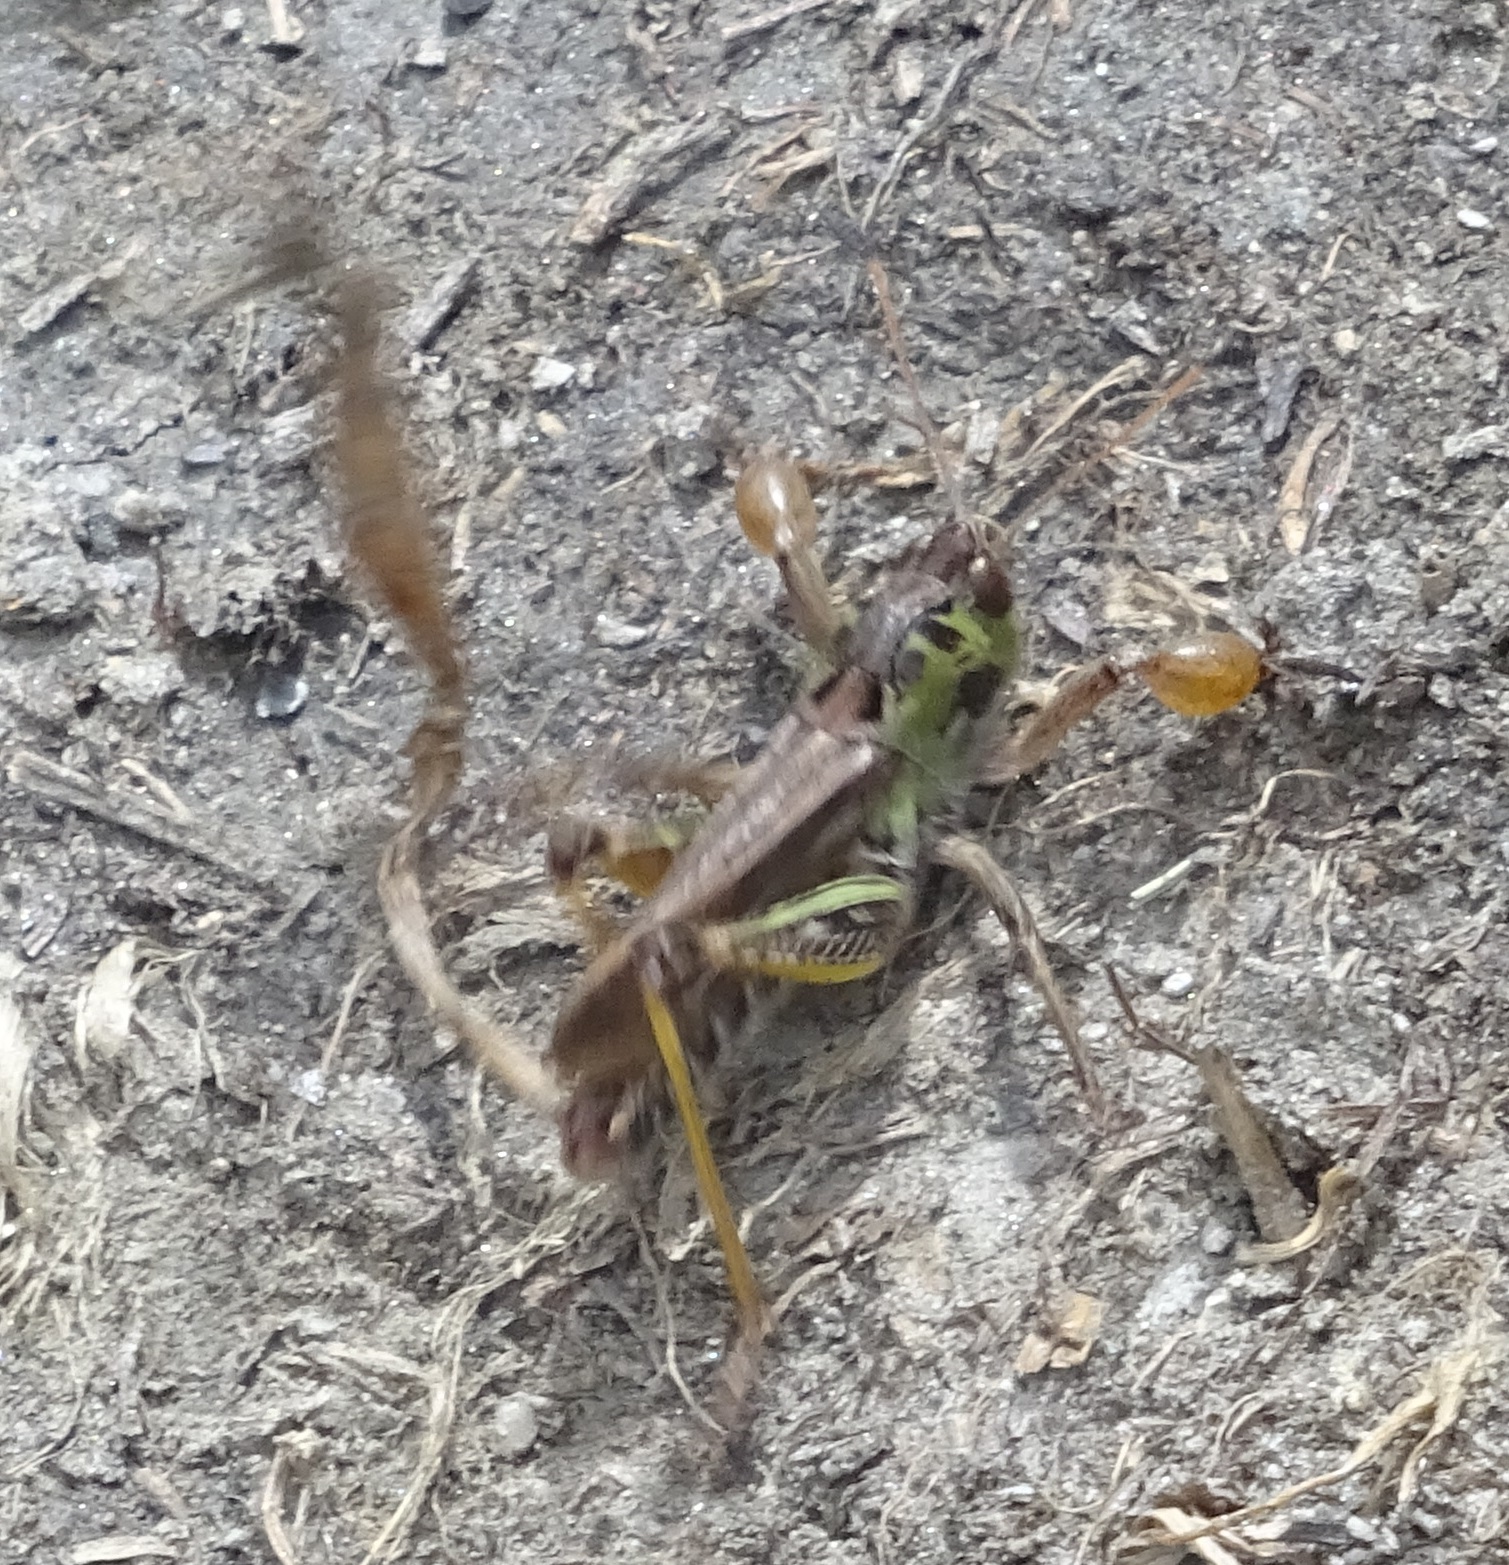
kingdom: Animalia
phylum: Arthropoda
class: Insecta
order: Orthoptera
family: Acrididae
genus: Gomphocerus
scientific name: Gomphocerus sibiricus
